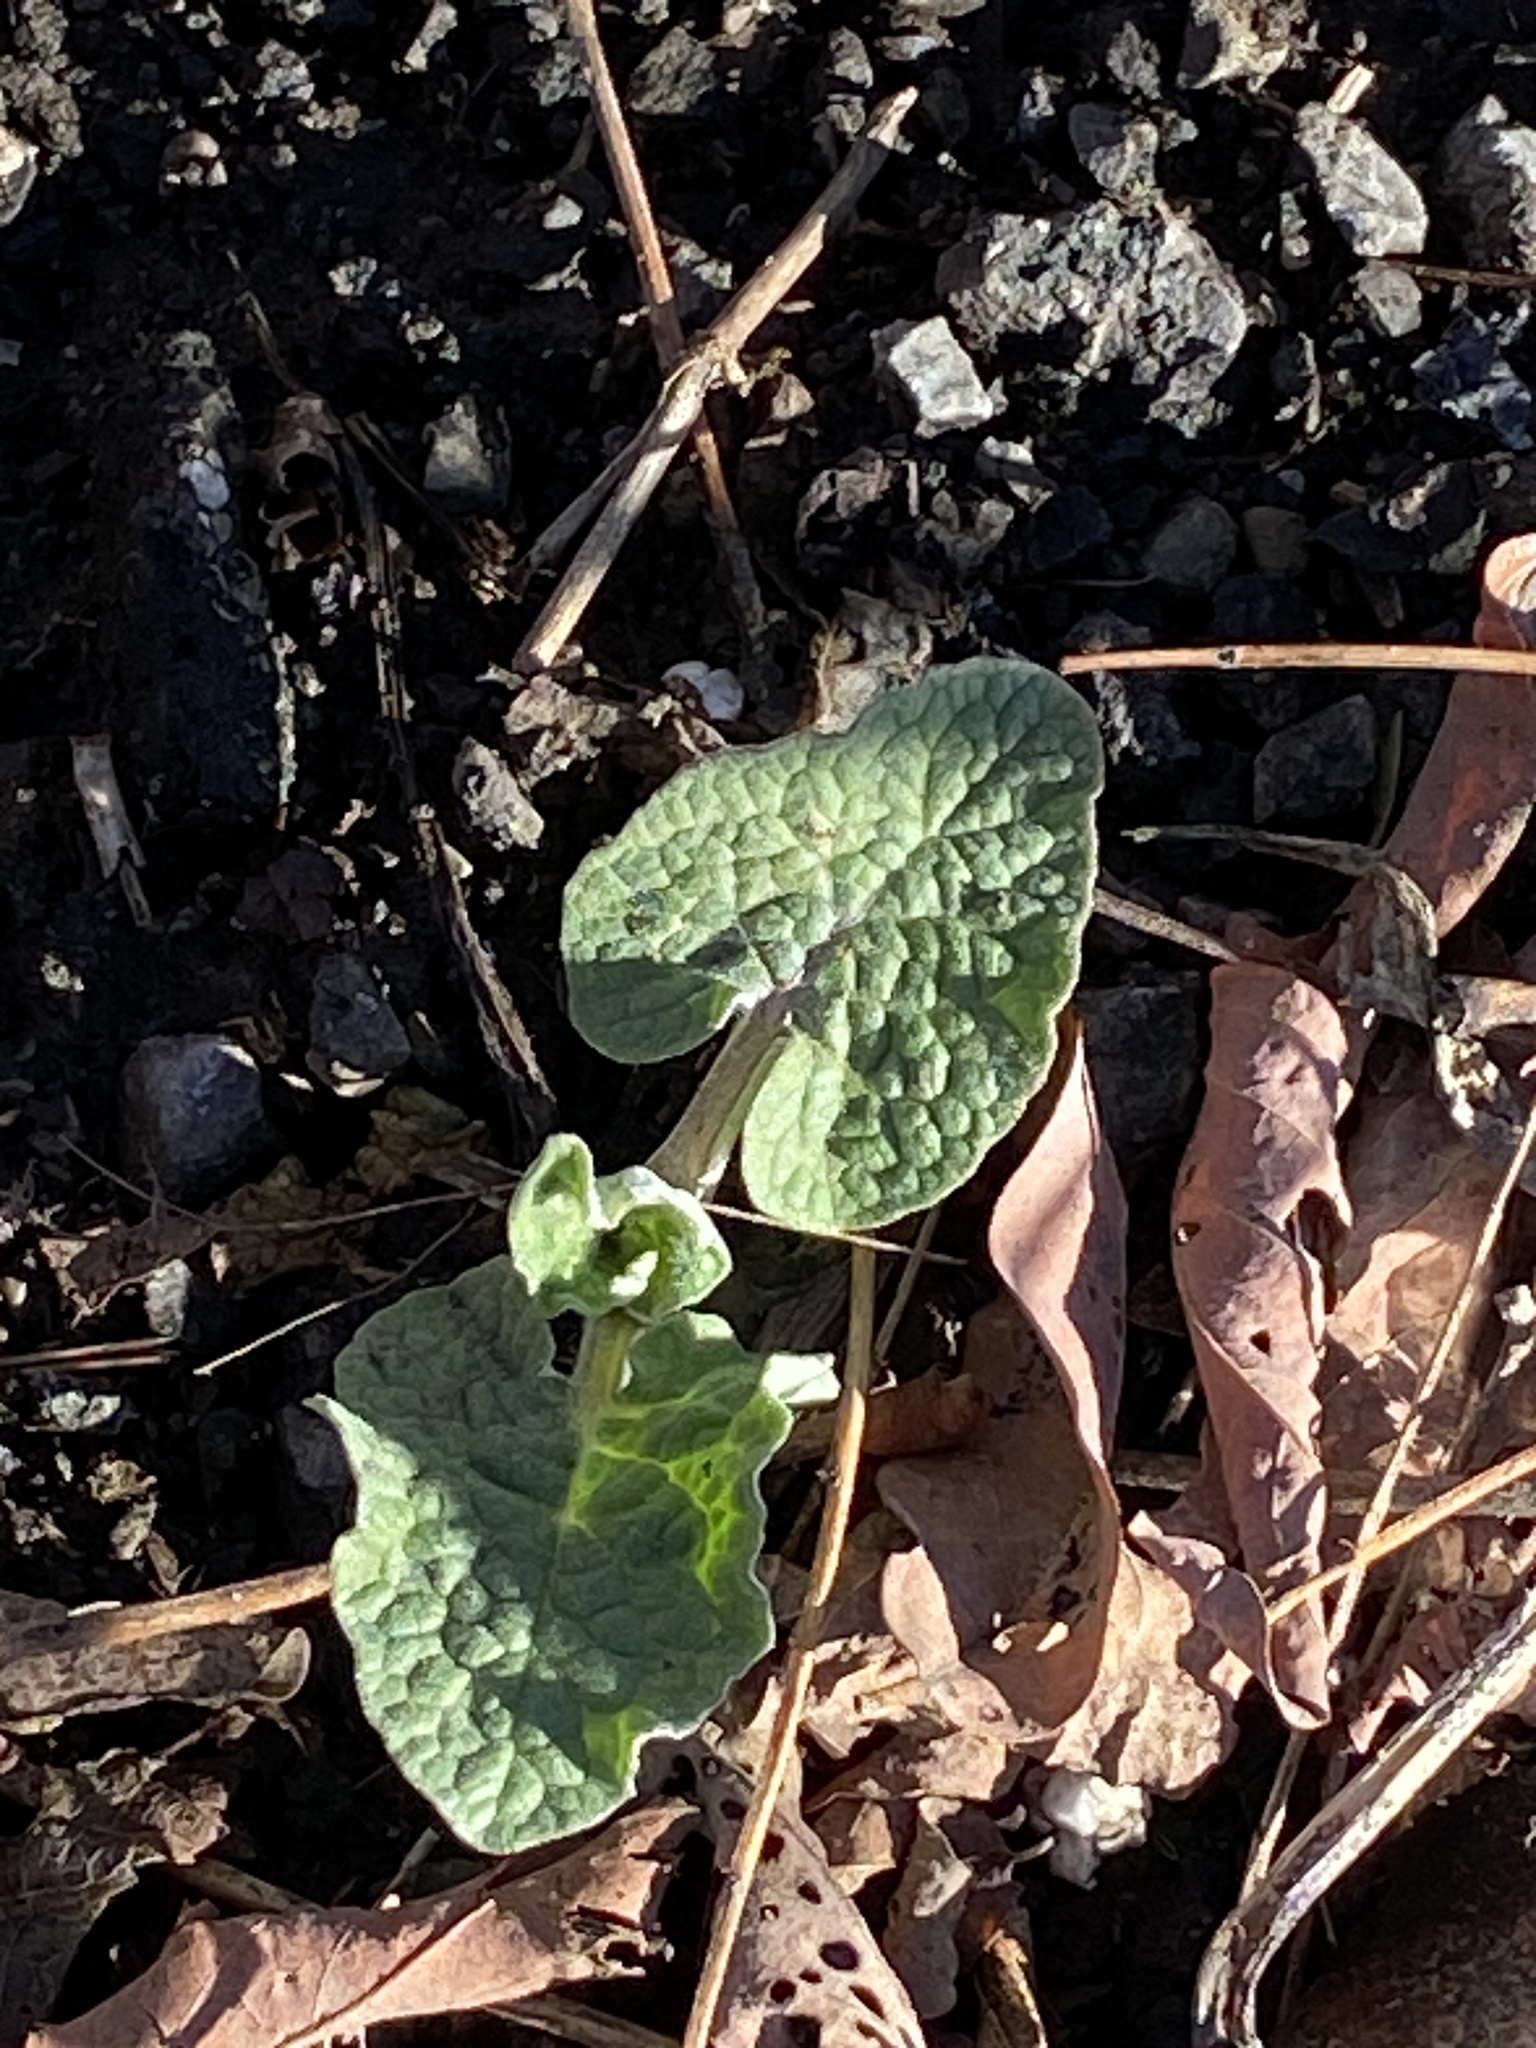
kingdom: Plantae
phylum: Tracheophyta
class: Magnoliopsida
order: Asterales
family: Asteraceae
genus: Arctium
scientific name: Arctium
